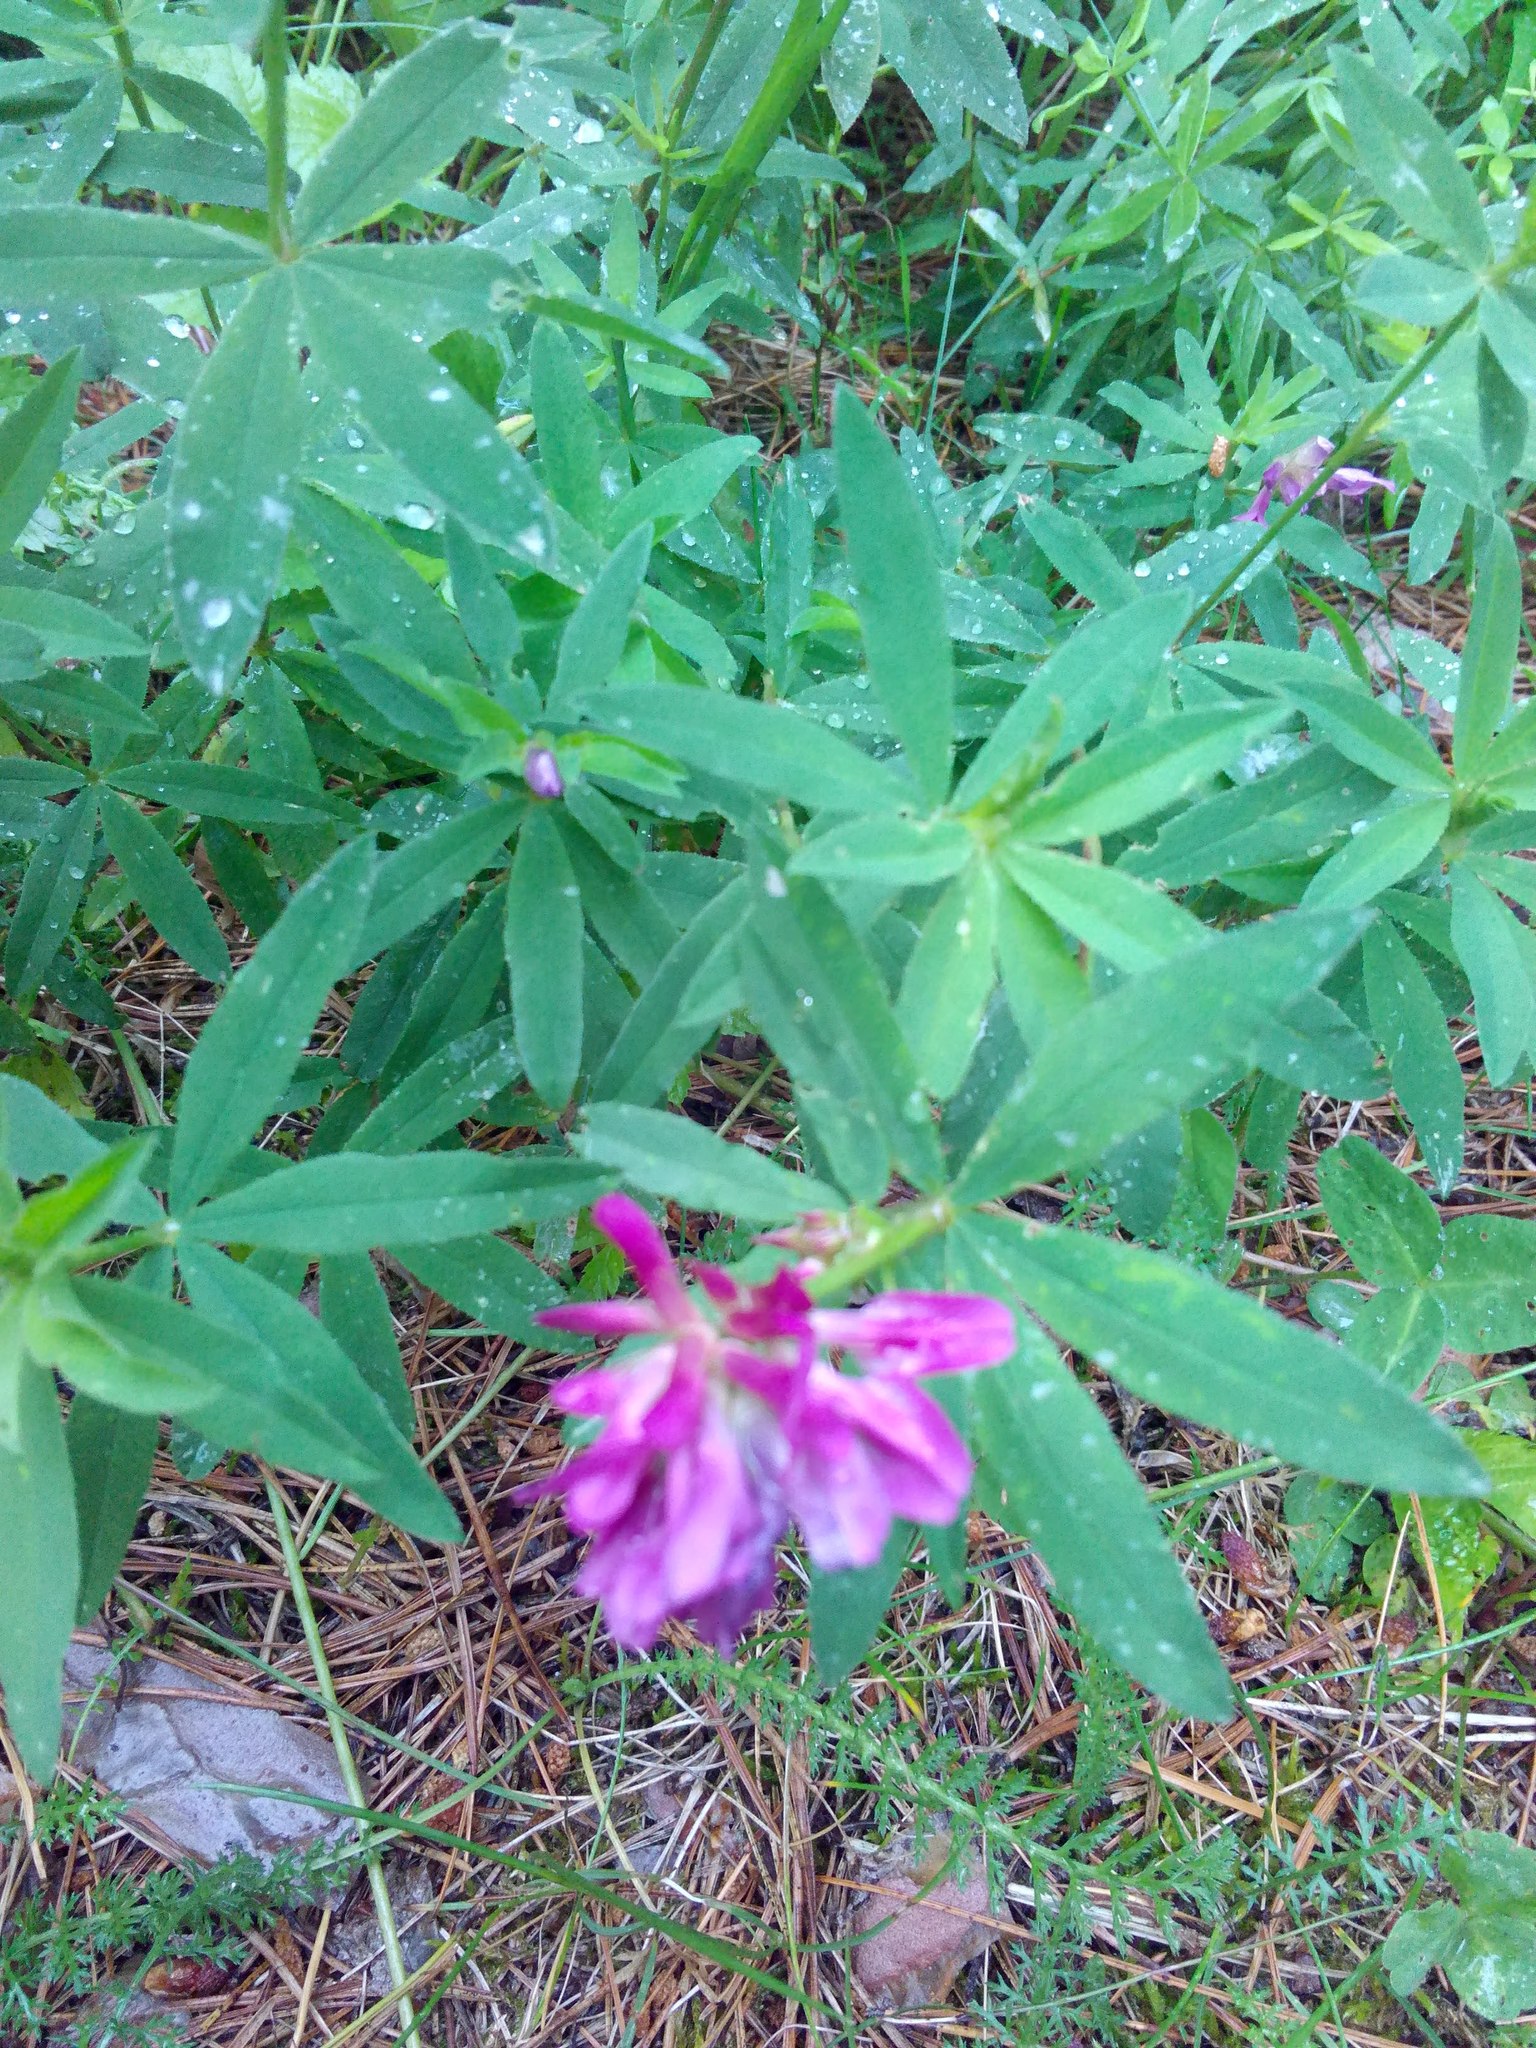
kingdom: Plantae
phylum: Tracheophyta
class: Magnoliopsida
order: Fabales
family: Fabaceae
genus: Trifolium
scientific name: Trifolium lupinaster
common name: Lupine clover
